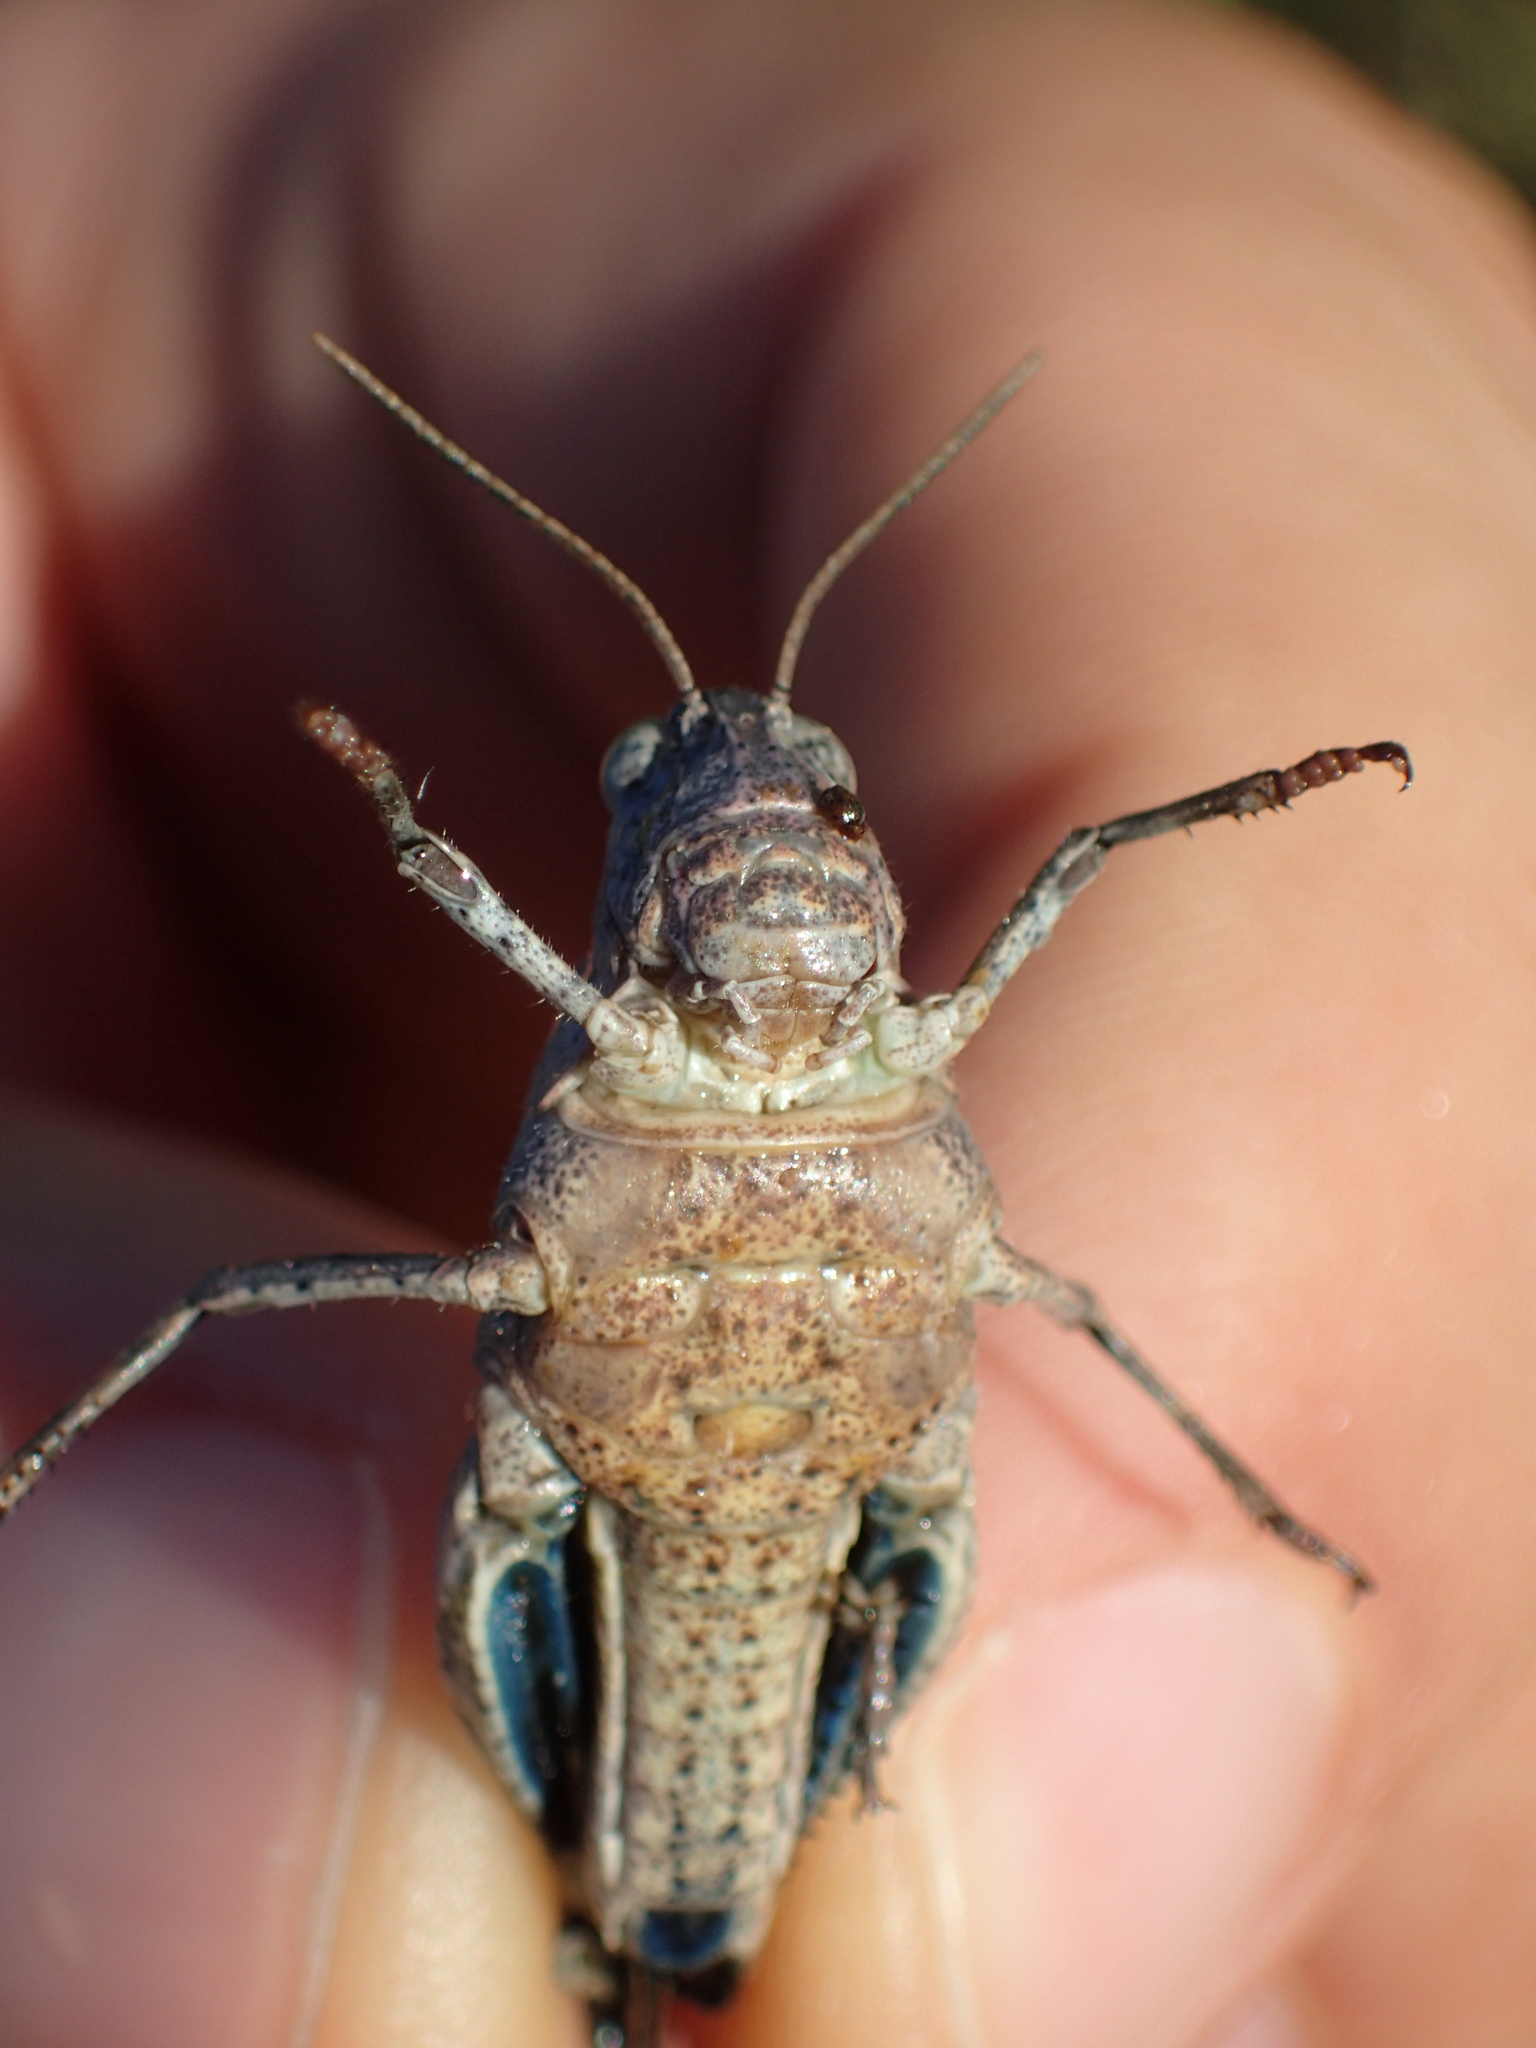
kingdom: Animalia
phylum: Arthropoda
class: Insecta
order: Orthoptera
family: Acrididae
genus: Oedipoda
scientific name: Oedipoda caerulescens
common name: Blue-winged grasshopper
